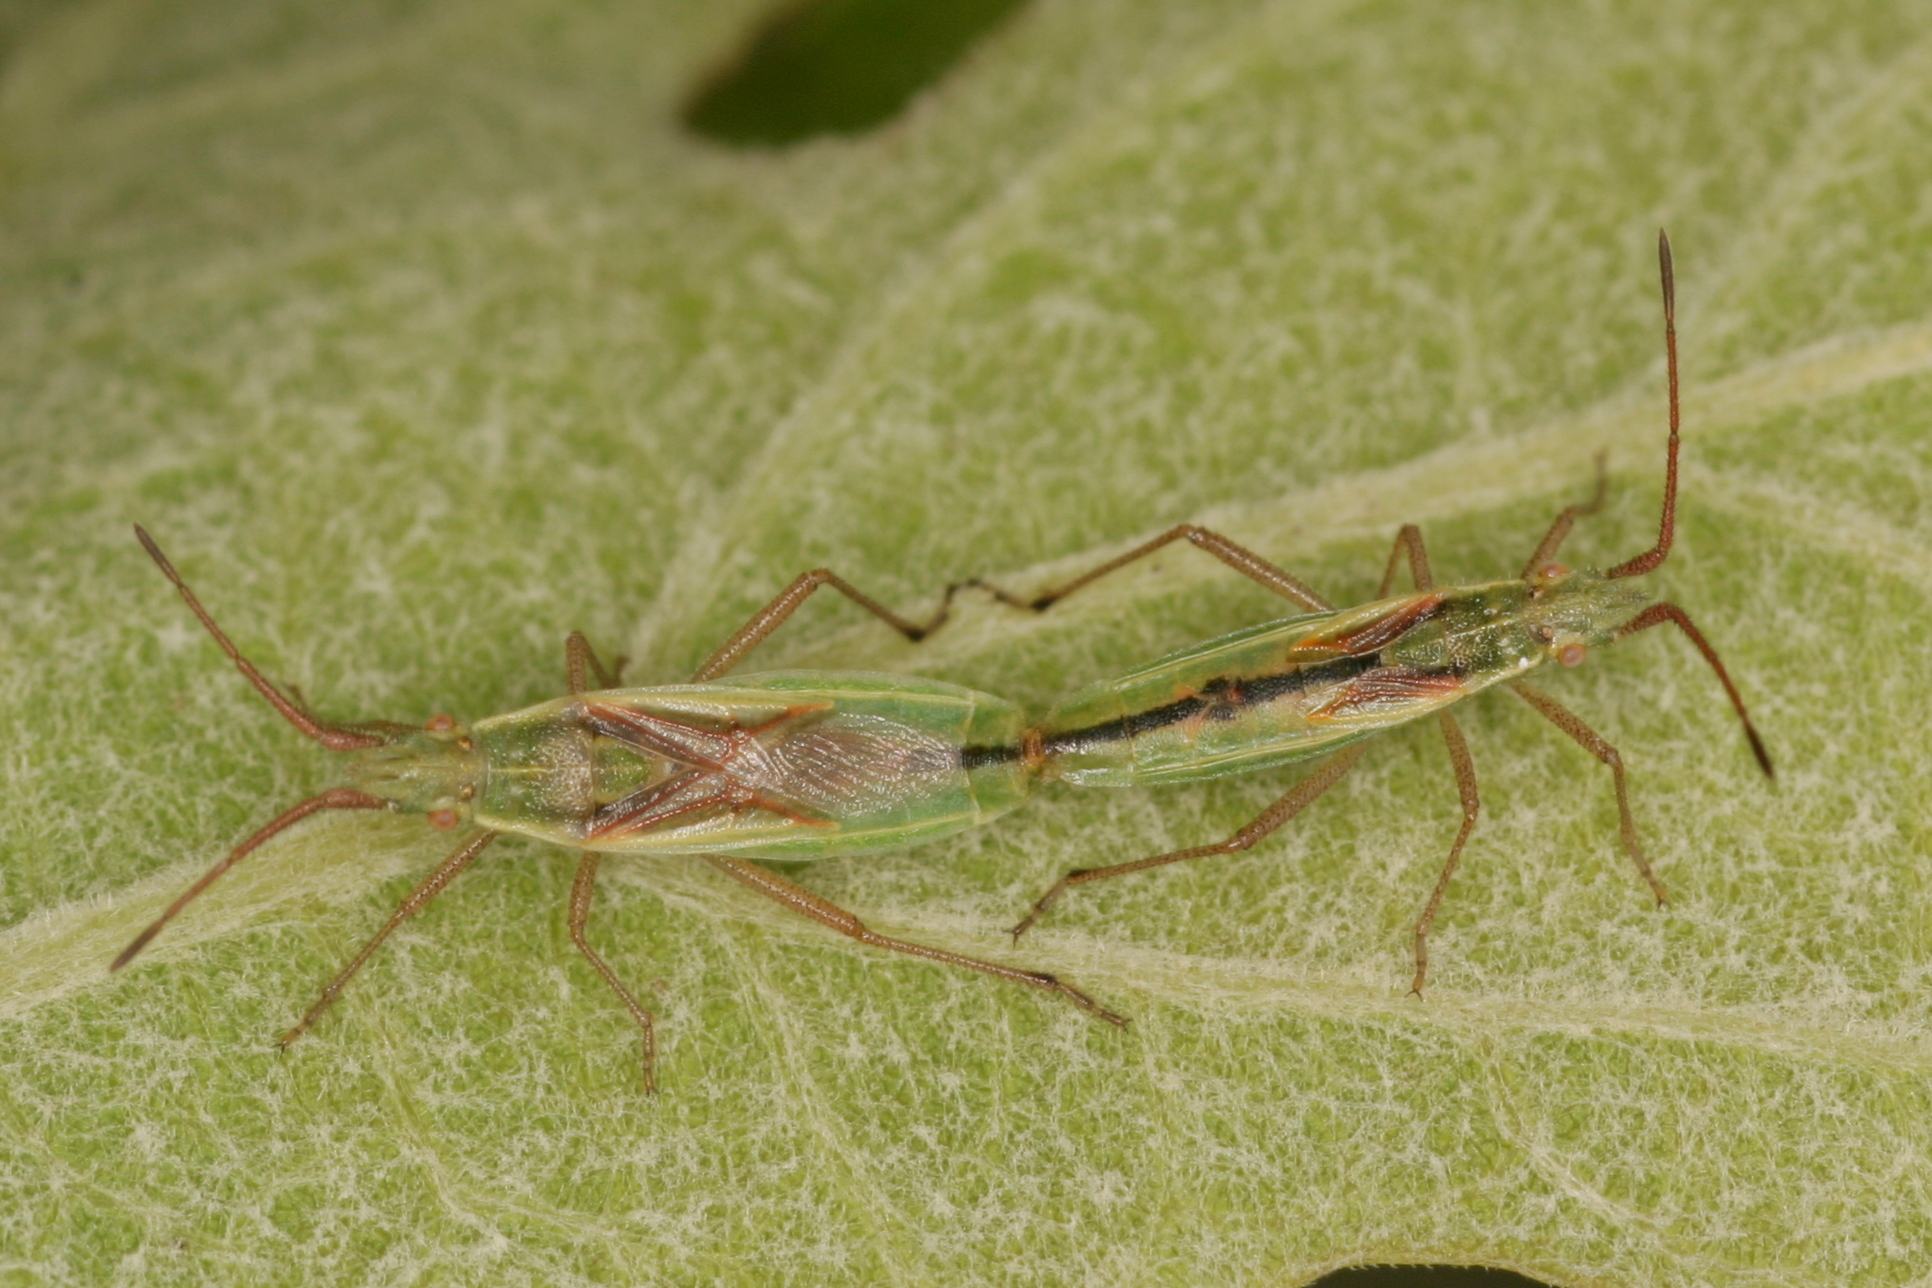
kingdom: Animalia
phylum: Arthropoda
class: Insecta
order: Hemiptera
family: Rhopalidae
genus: Myrmus
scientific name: Myrmus miriformis
